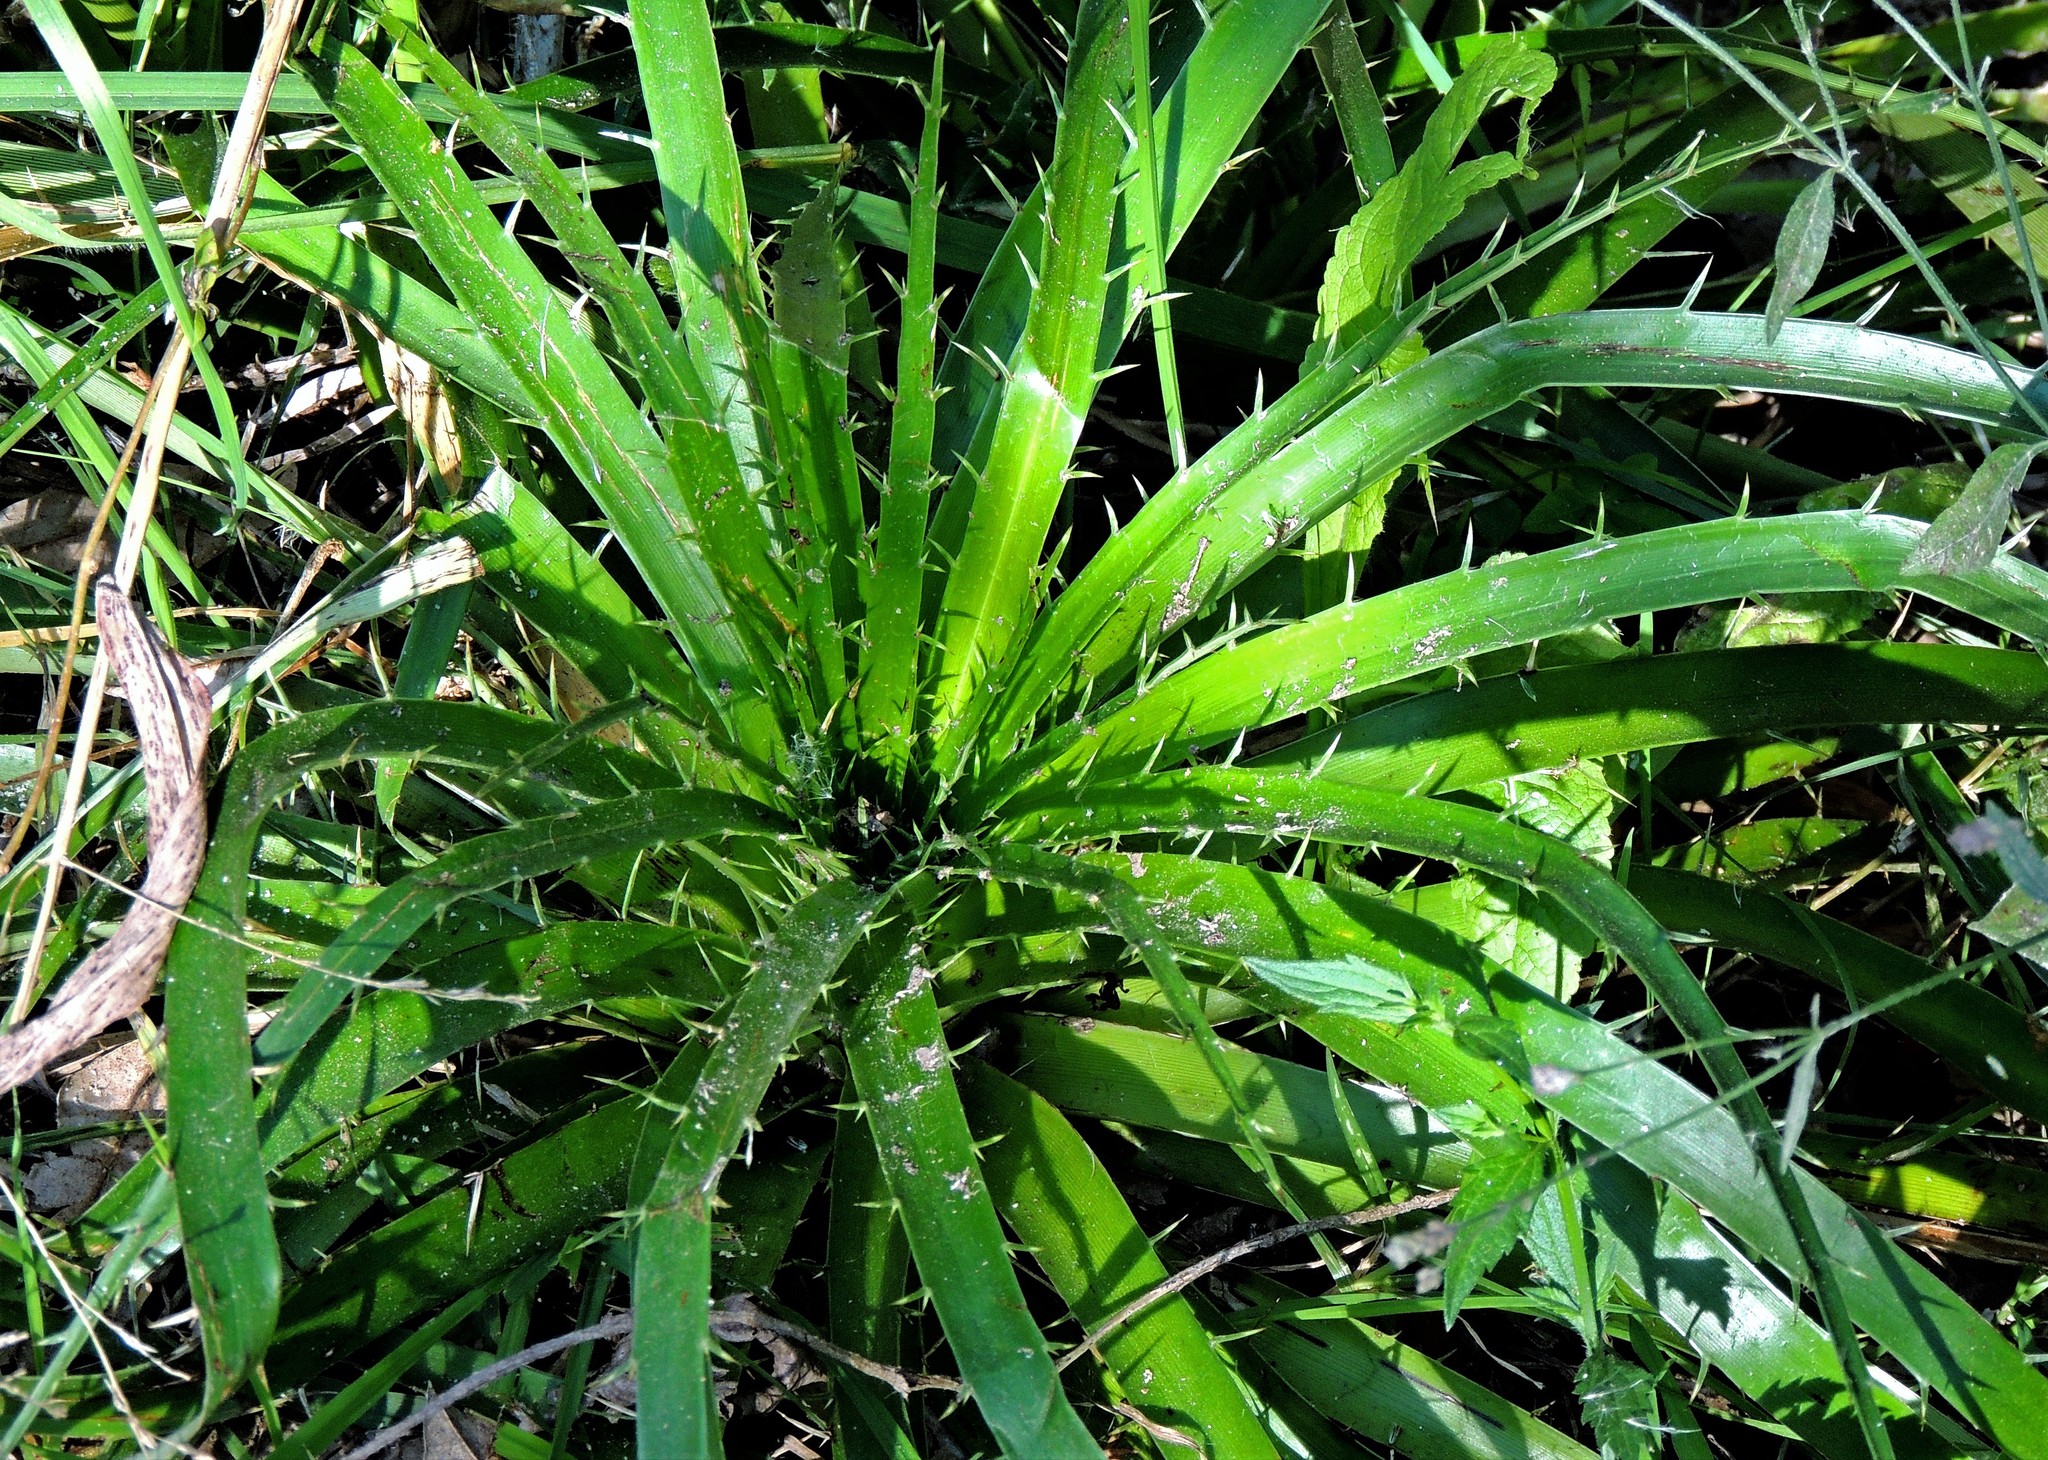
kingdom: Plantae
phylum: Tracheophyta
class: Magnoliopsida
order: Apiales
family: Apiaceae
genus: Eryngium
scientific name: Eryngium humboldtii
